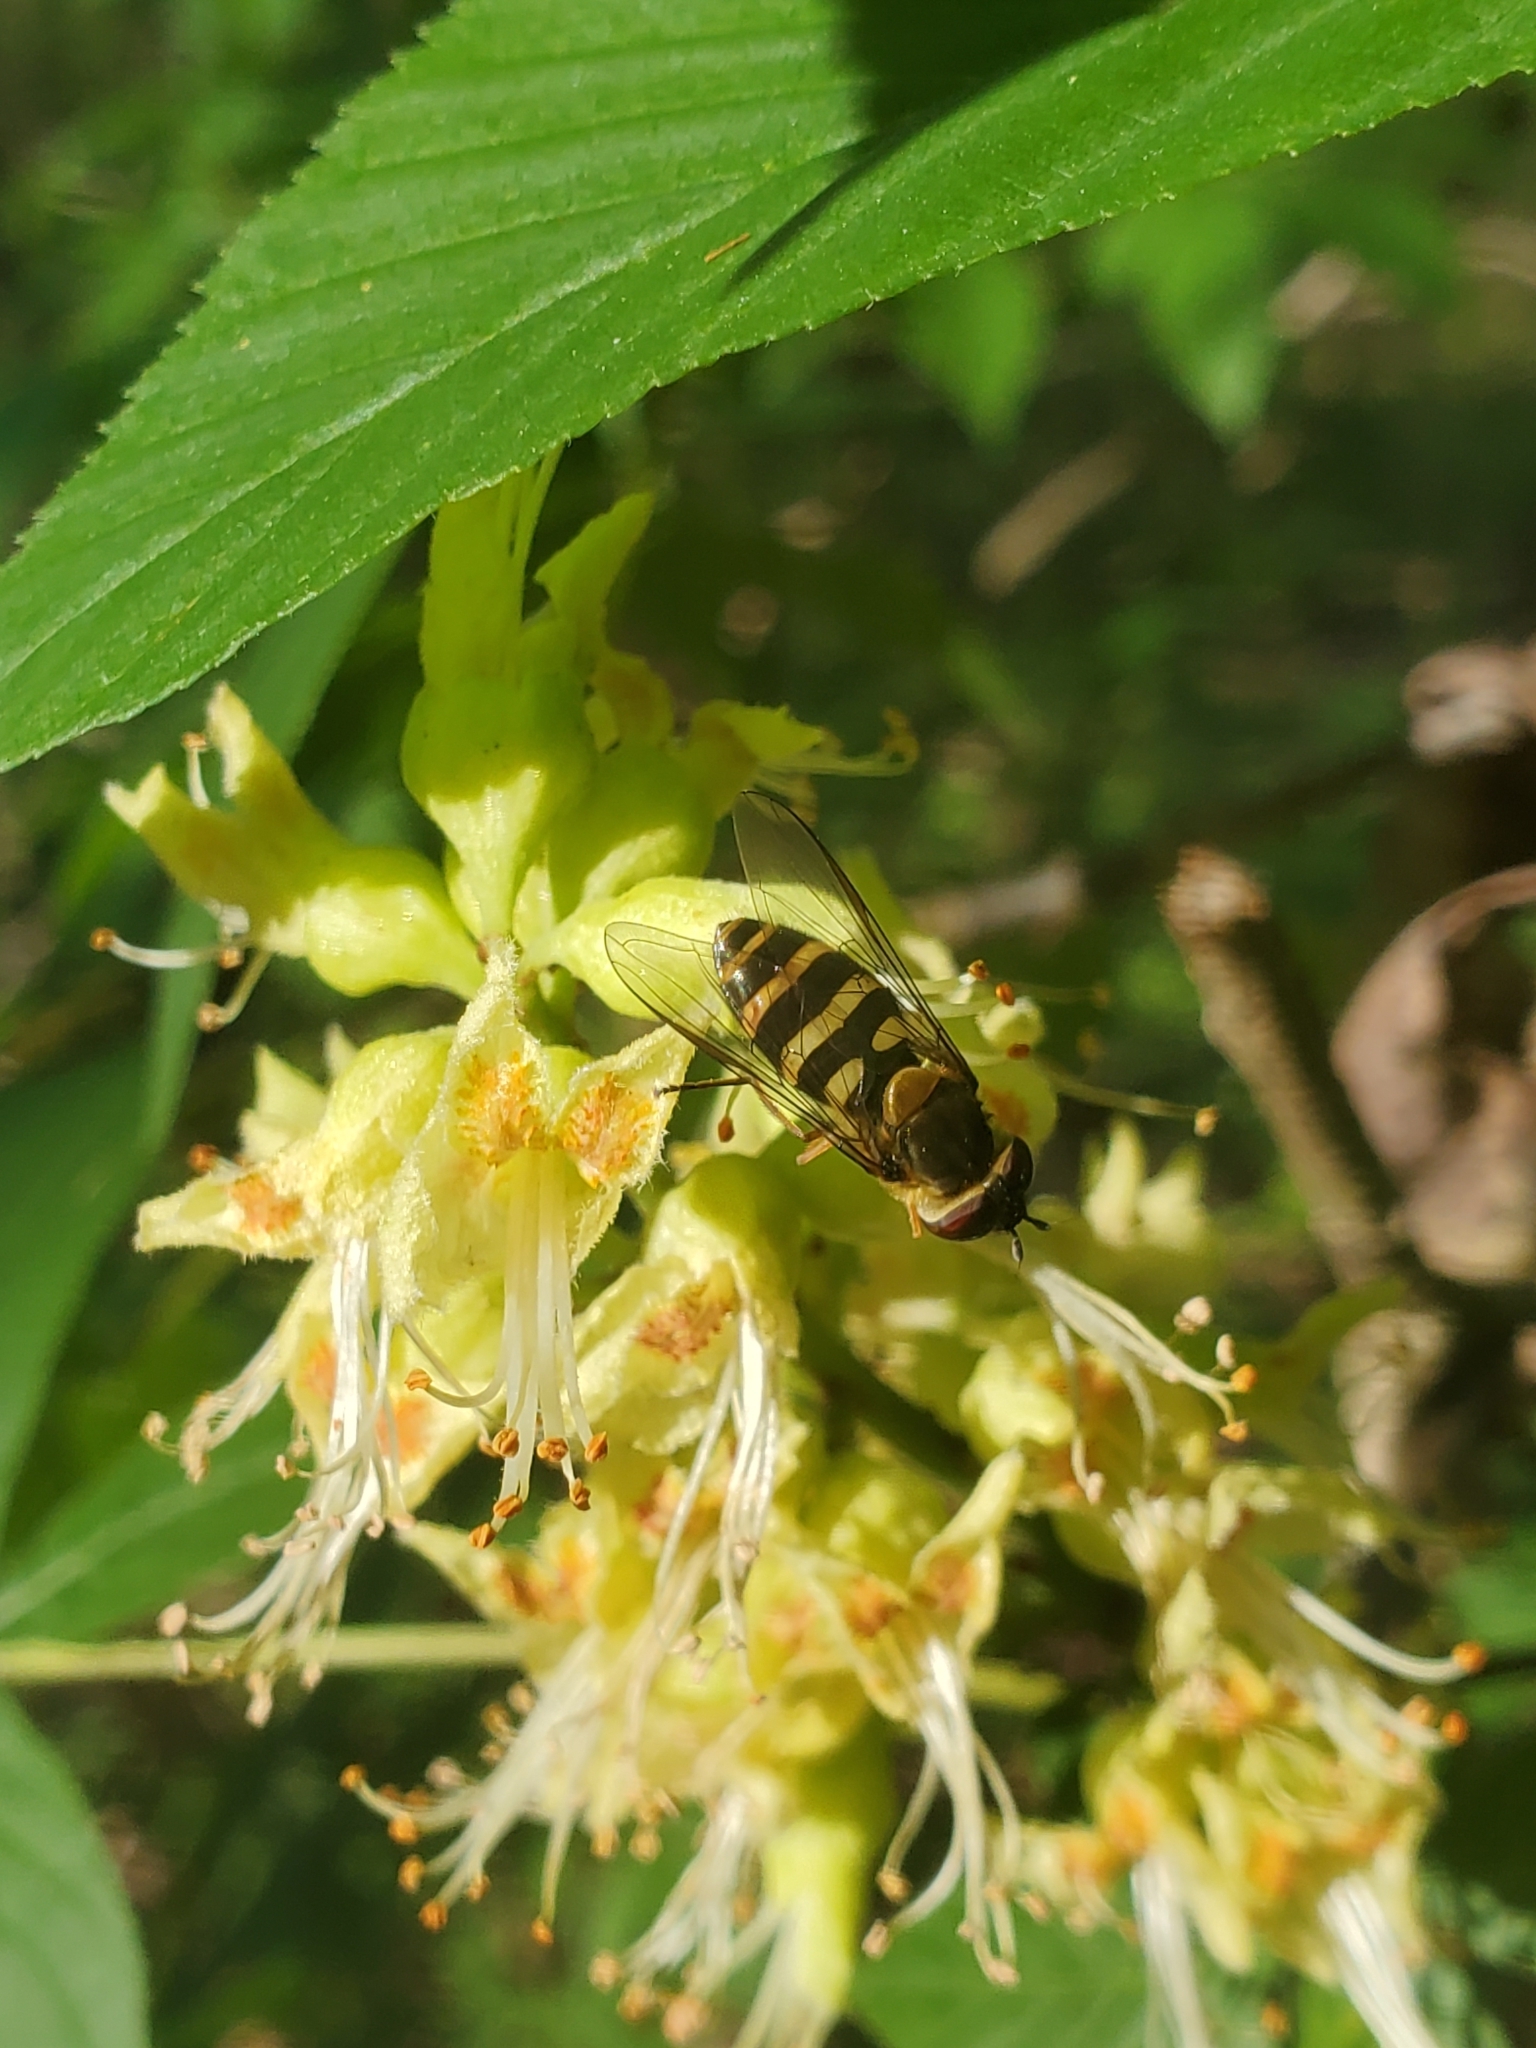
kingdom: Animalia
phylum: Arthropoda
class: Insecta
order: Diptera
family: Syrphidae
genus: Syrphus
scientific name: Syrphus
